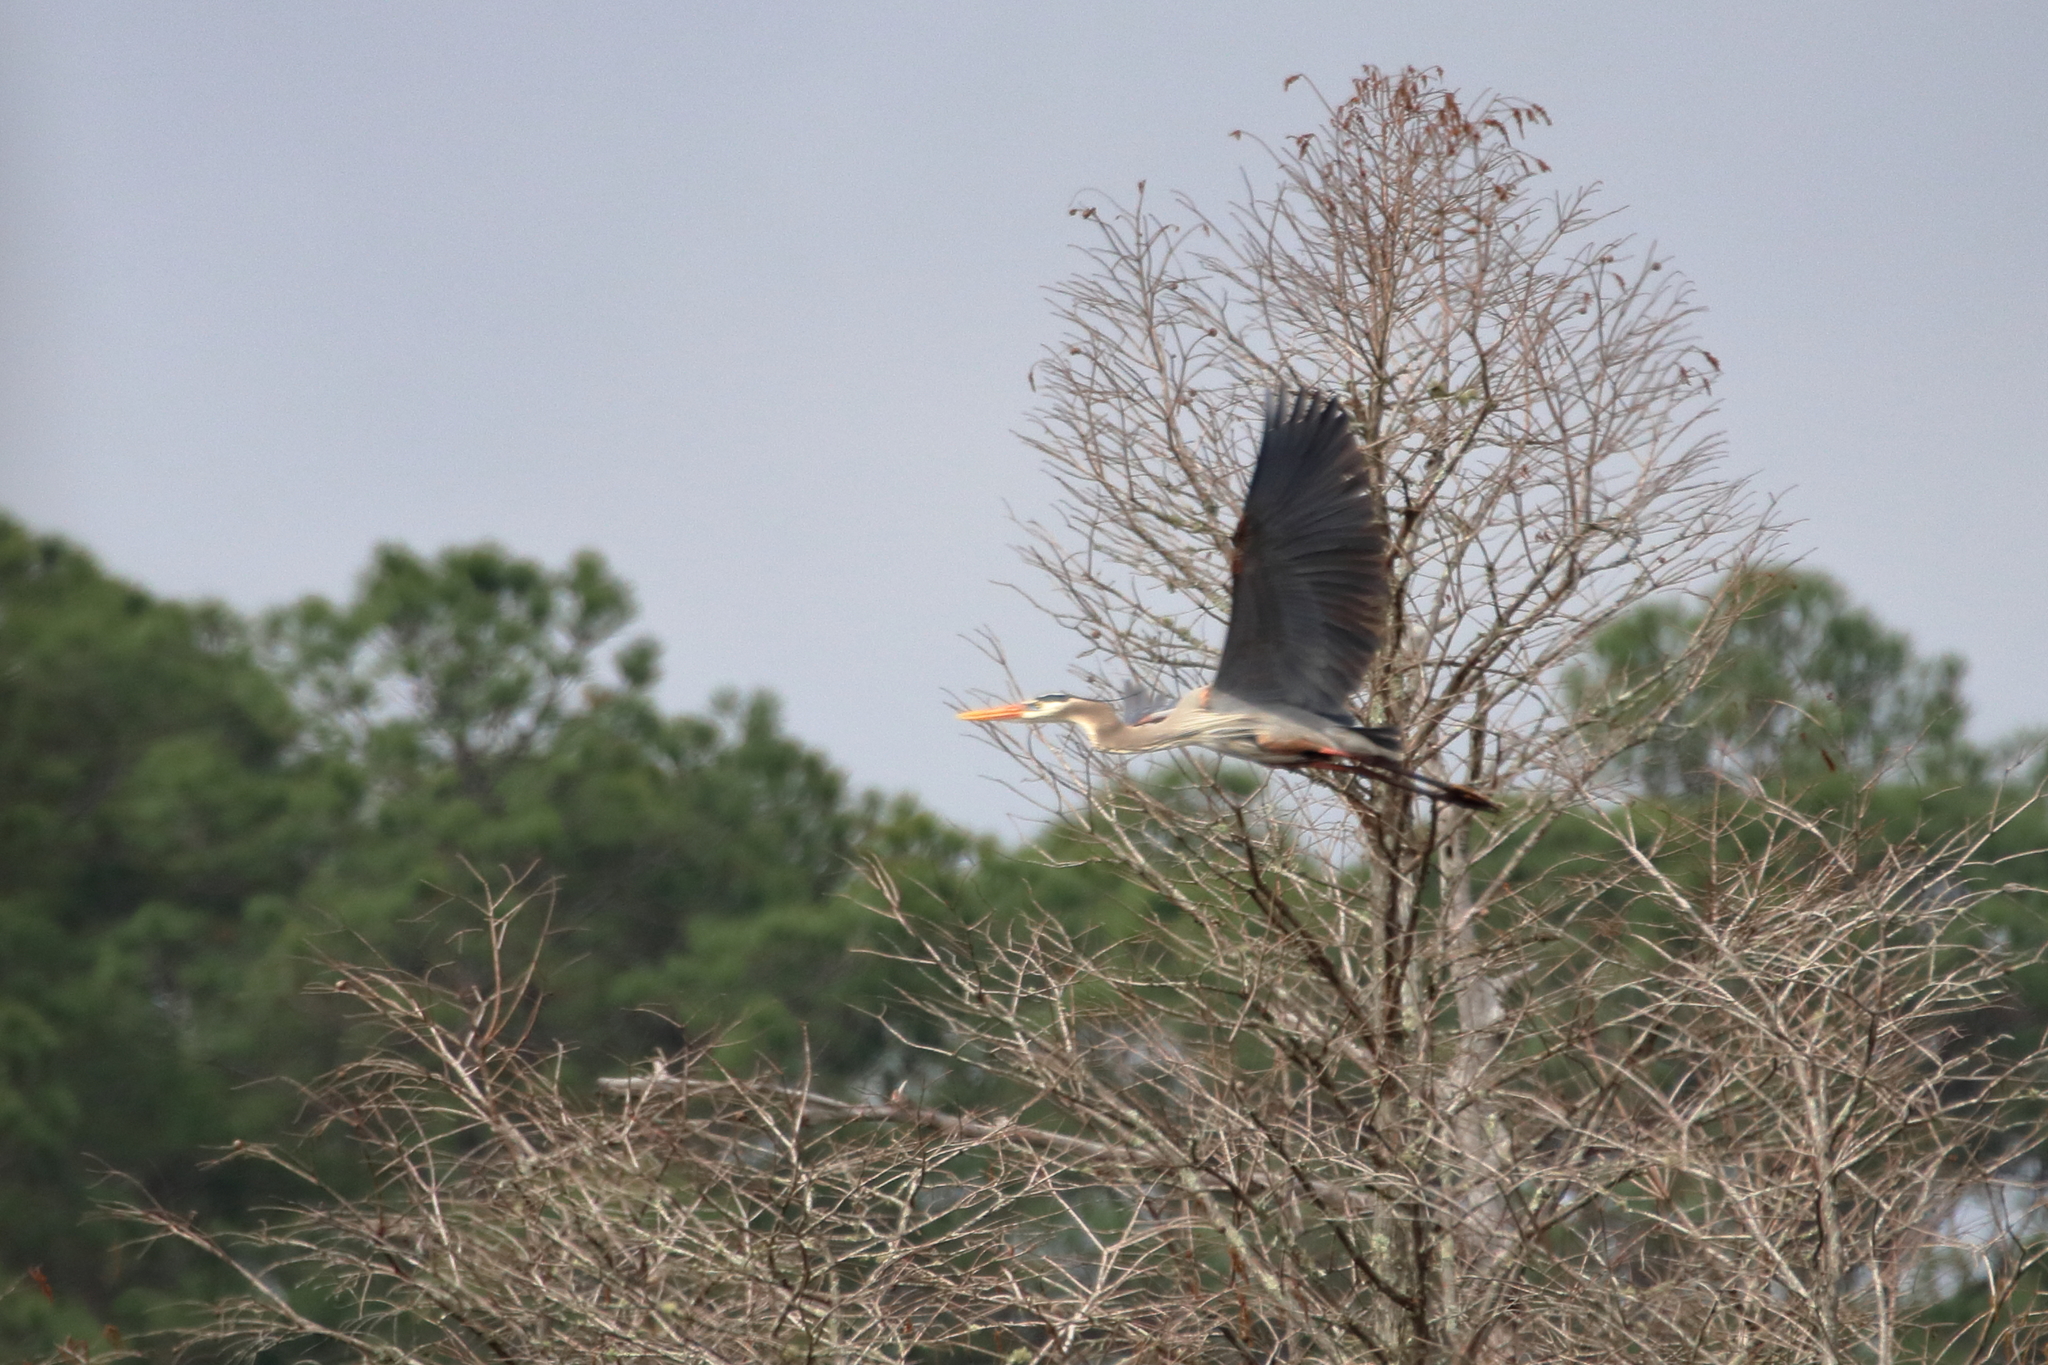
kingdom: Animalia
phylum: Chordata
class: Aves
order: Pelecaniformes
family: Ardeidae
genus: Ardea
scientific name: Ardea herodias
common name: Great blue heron
